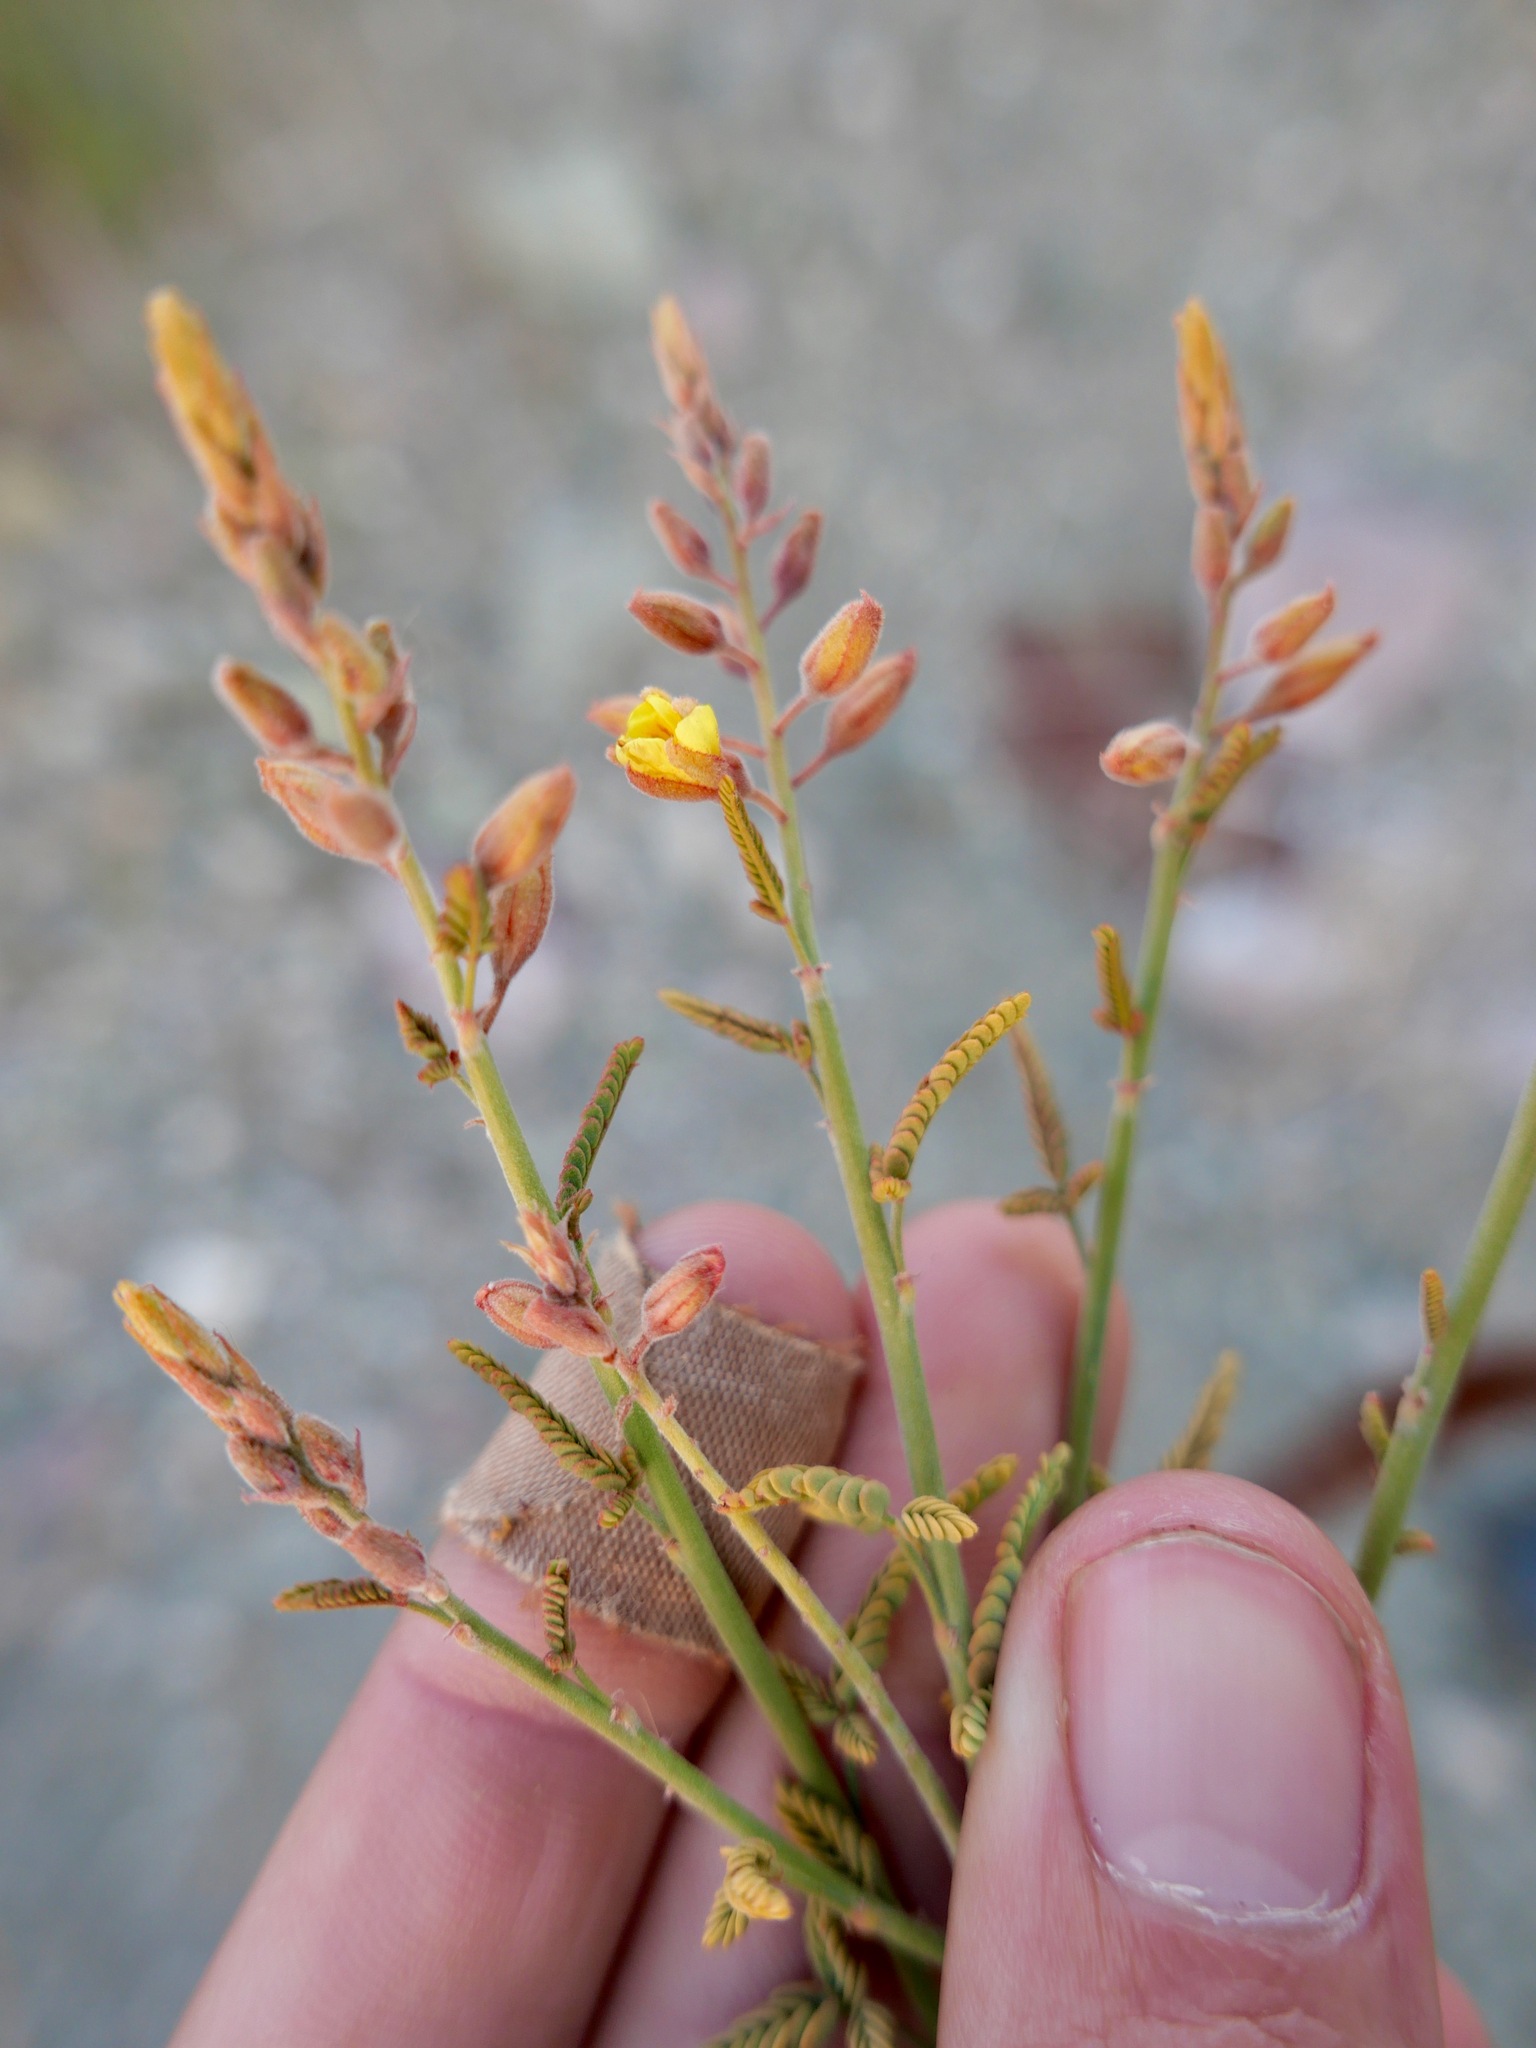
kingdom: Plantae
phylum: Tracheophyta
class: Magnoliopsida
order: Fabales
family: Fabaceae
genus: Hoffmannseggia
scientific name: Hoffmannseggia microphylla
